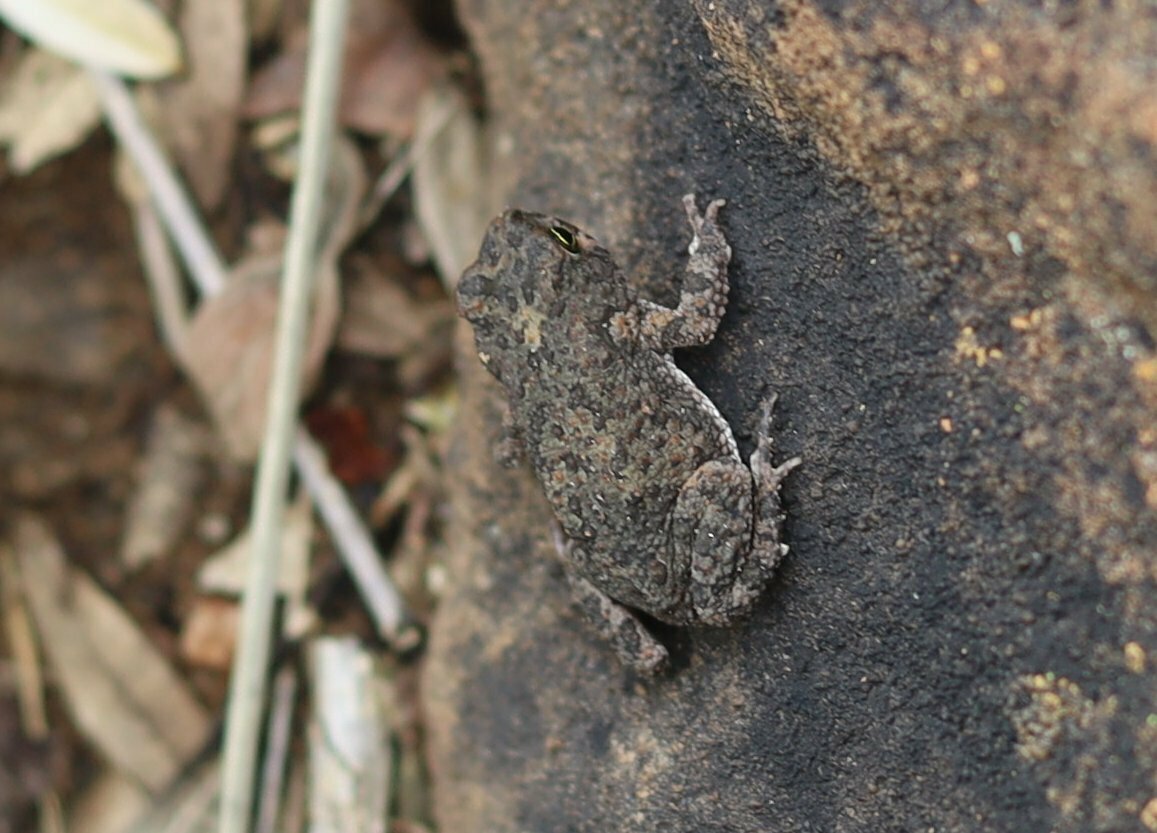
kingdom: Animalia
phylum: Chordata
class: Amphibia
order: Anura
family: Bufonidae
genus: Poyntonophrynus
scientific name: Poyntonophrynus fenoulheti
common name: Fenoulhet's toad
